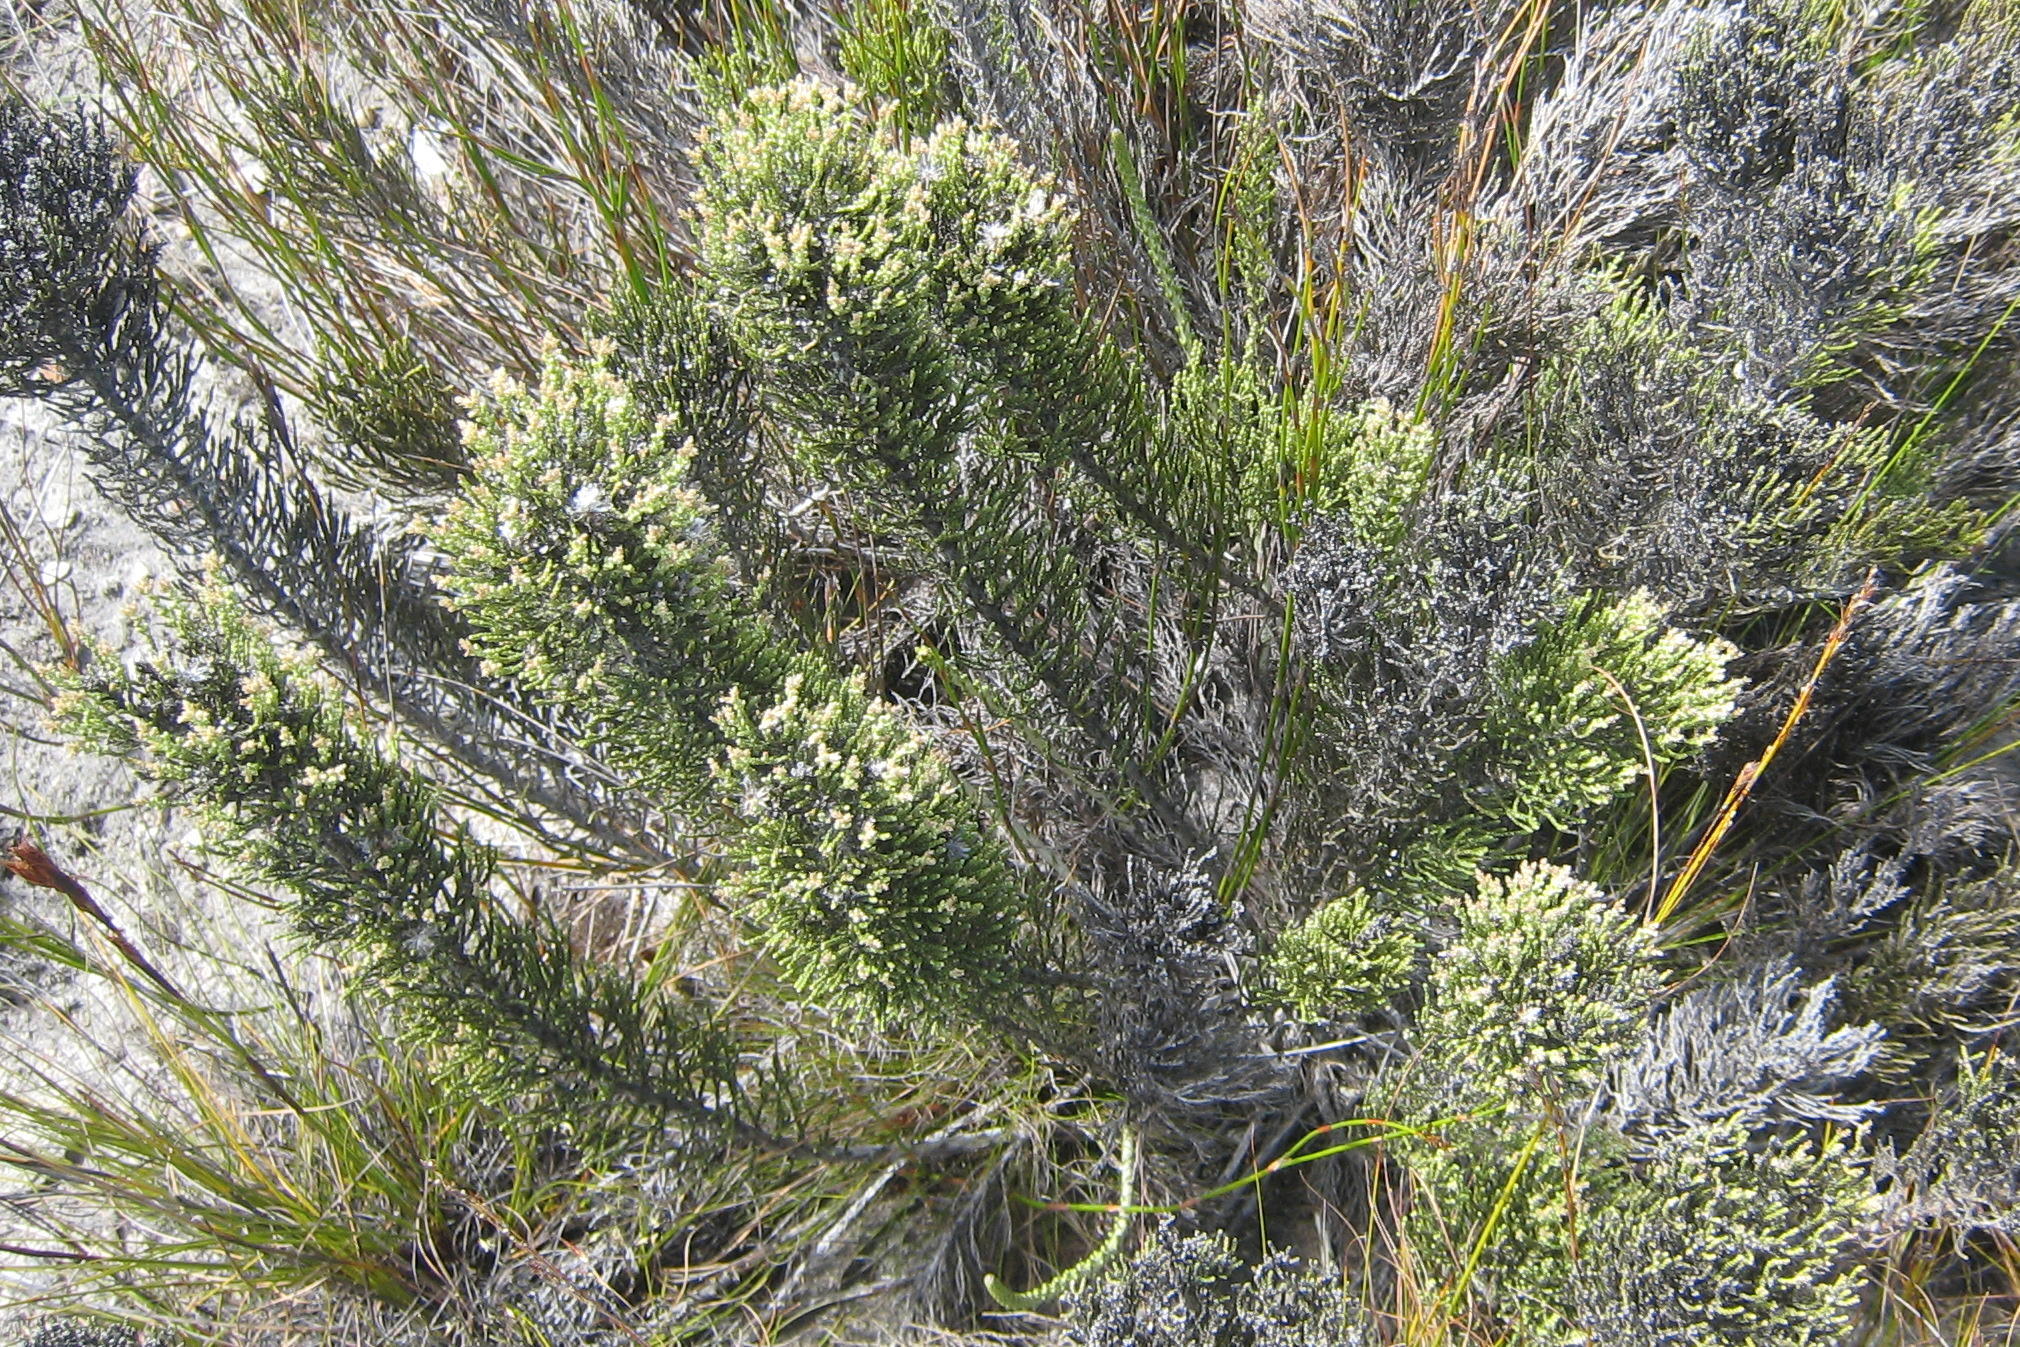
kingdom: Plantae
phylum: Tracheophyta
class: Magnoliopsida
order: Asterales
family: Asteraceae
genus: Dolichothrix
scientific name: Dolichothrix ericoides
